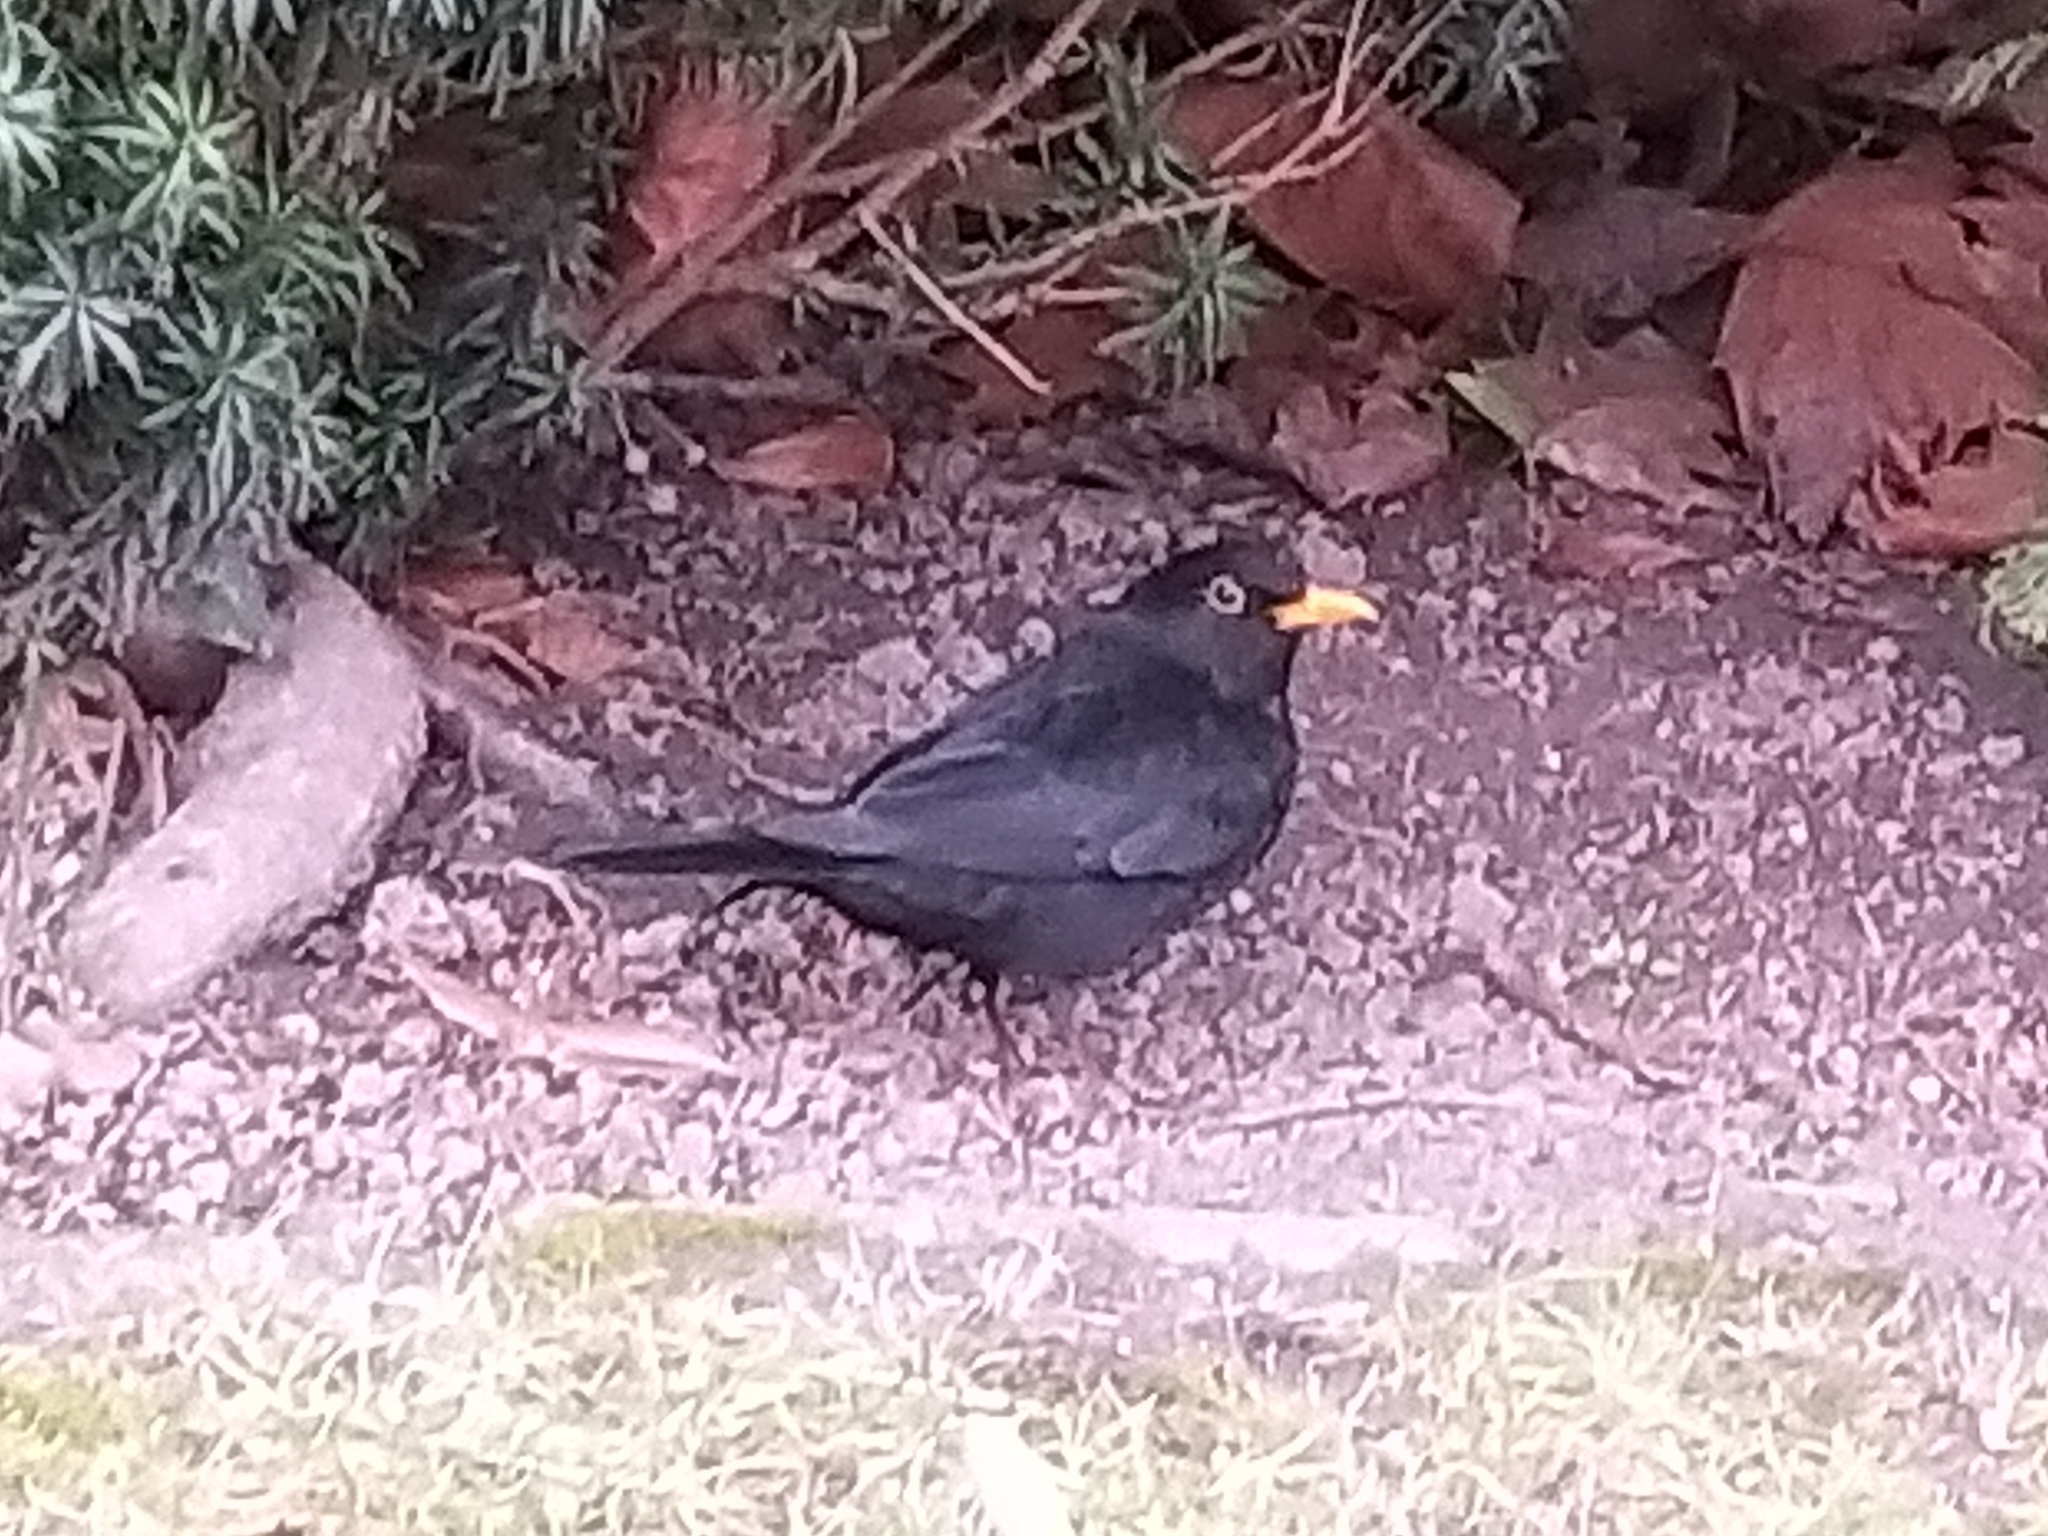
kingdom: Animalia
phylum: Chordata
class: Aves
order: Passeriformes
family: Turdidae
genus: Turdus
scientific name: Turdus merula
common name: Common blackbird
